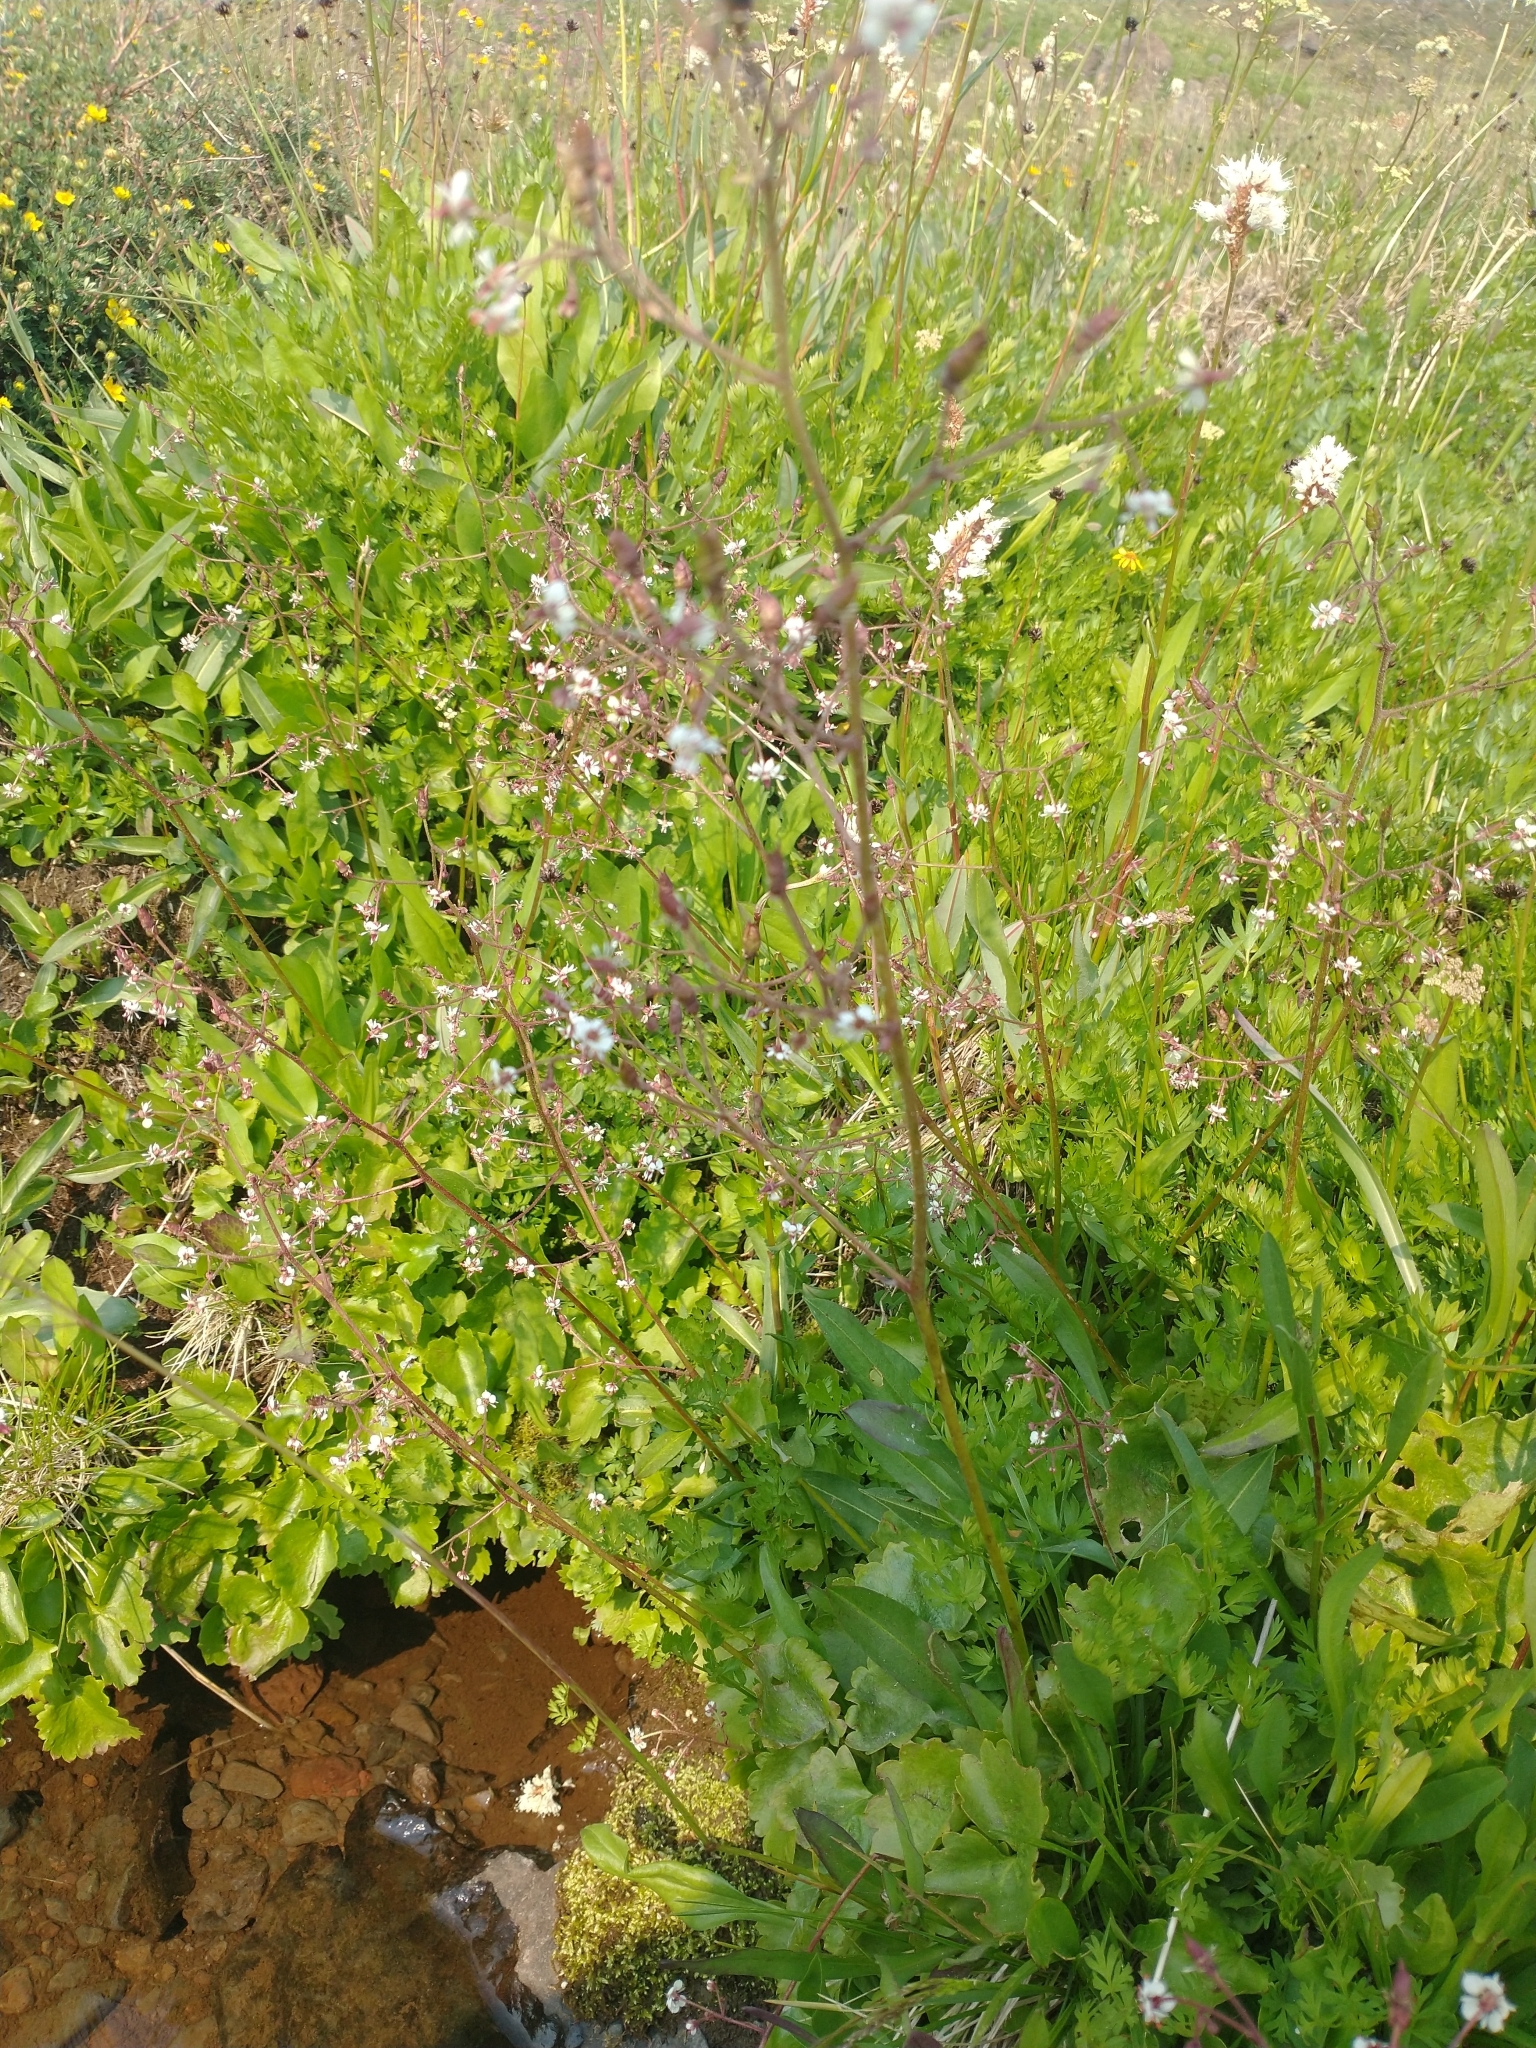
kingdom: Plantae
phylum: Tracheophyta
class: Magnoliopsida
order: Saxifragales
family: Saxifragaceae
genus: Micranthes
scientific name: Micranthes odontoloma
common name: Brook saxifrage
